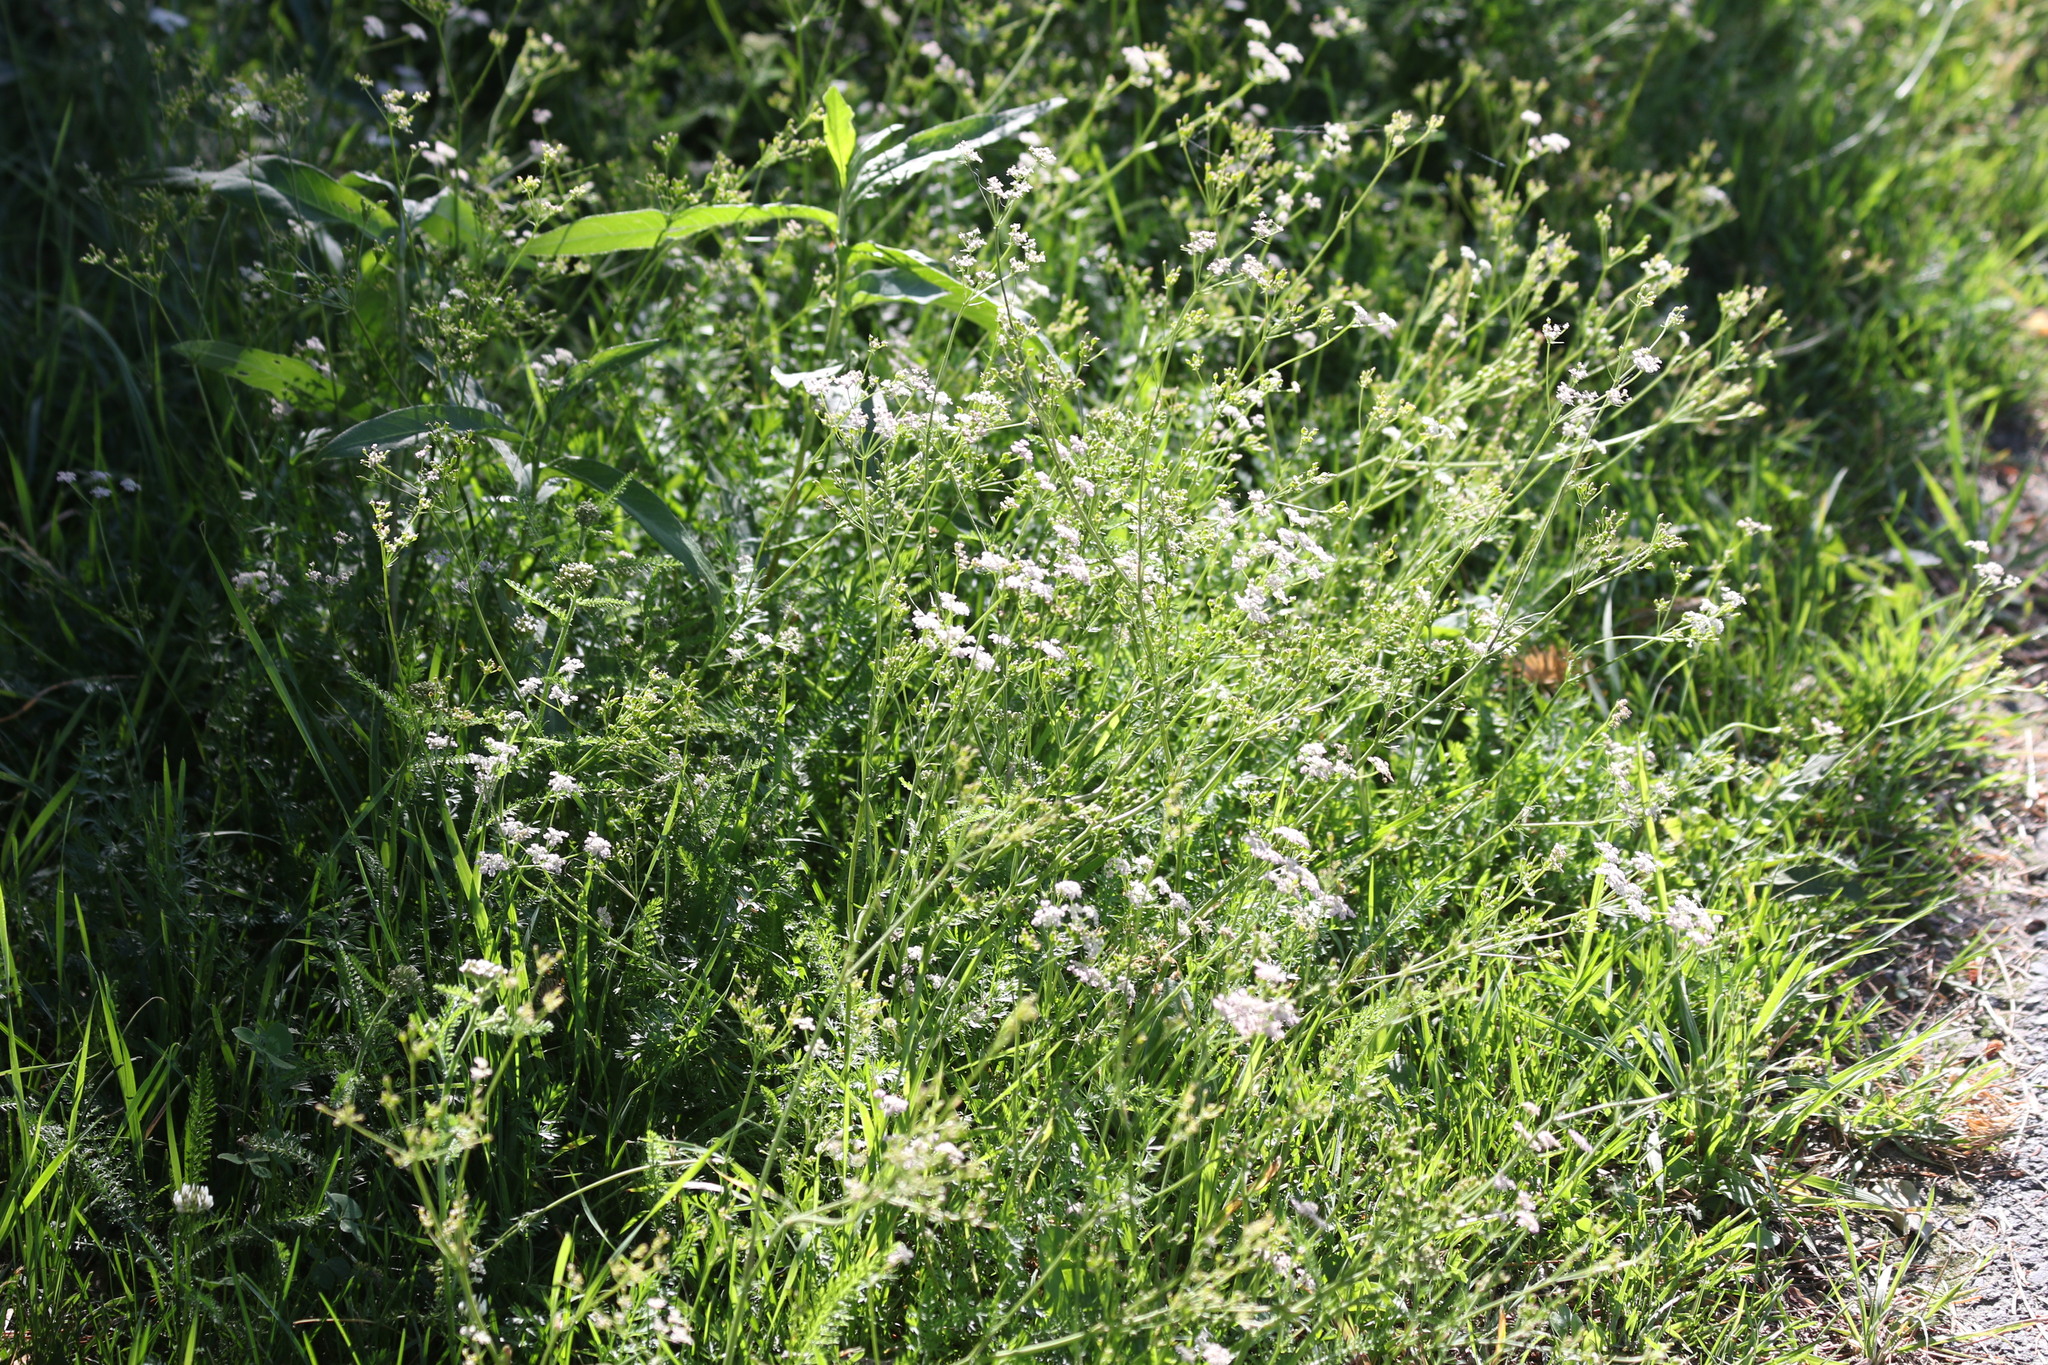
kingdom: Plantae
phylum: Tracheophyta
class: Magnoliopsida
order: Apiales
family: Apiaceae
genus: Carum
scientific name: Carum carvi
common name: Caraway
